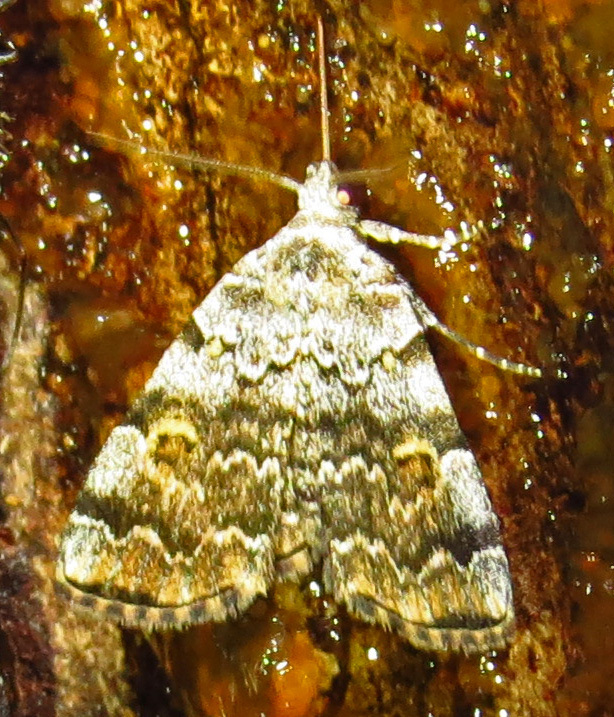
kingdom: Animalia
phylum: Arthropoda
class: Insecta
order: Lepidoptera
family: Erebidae
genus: Idia
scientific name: Idia americalis
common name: American idia moth
